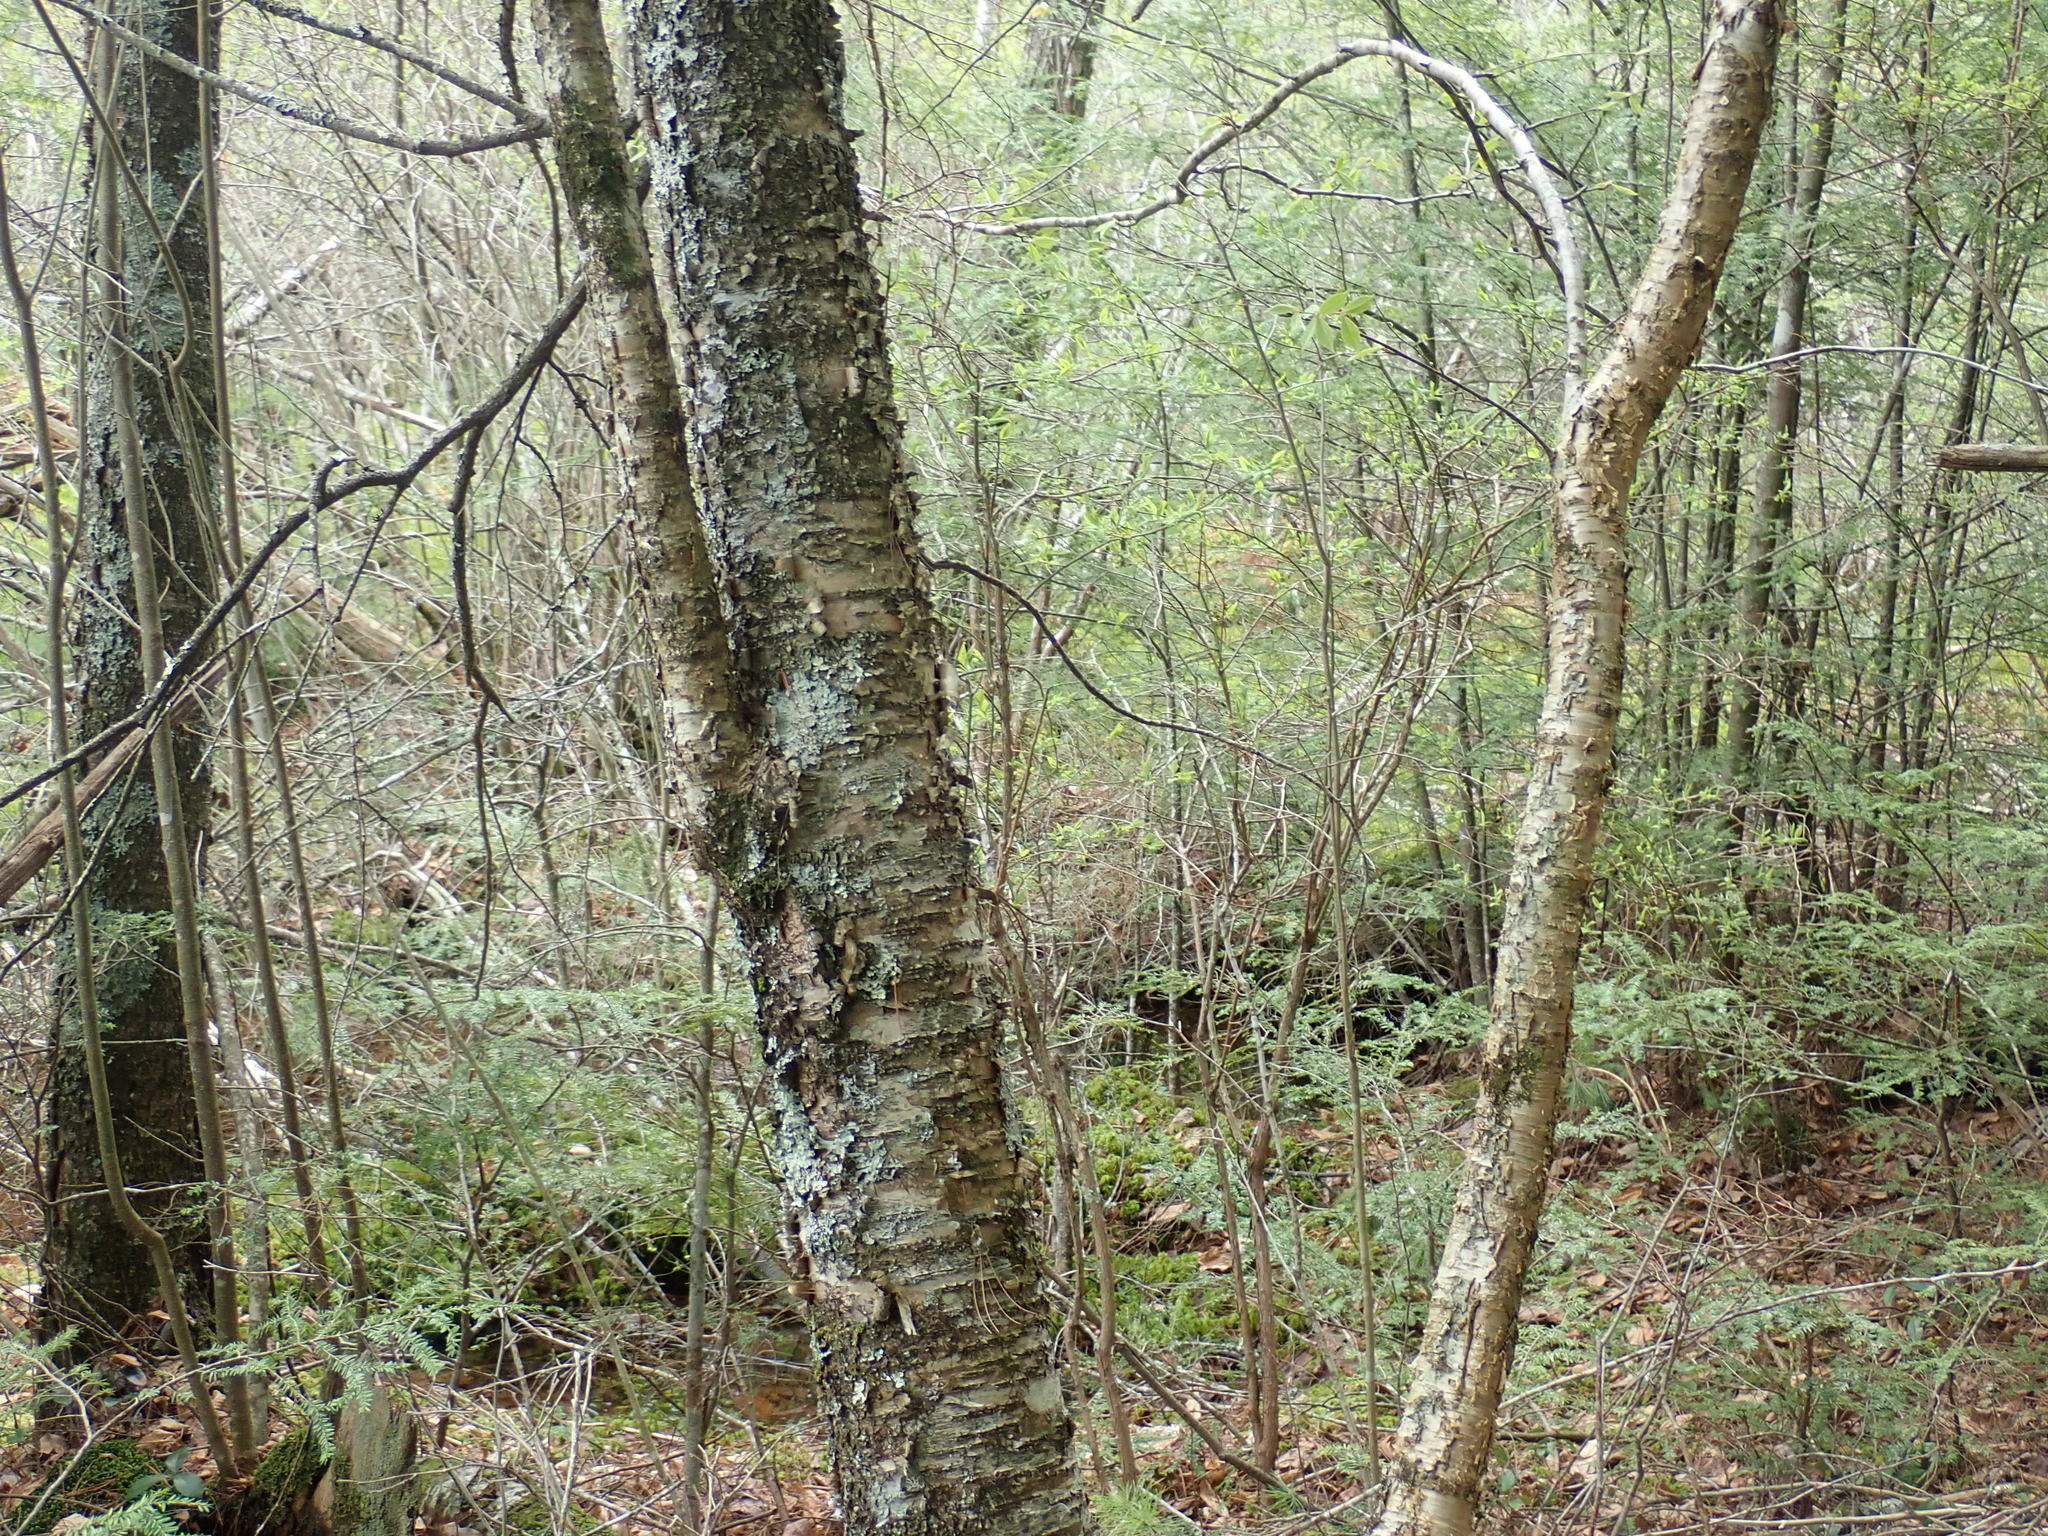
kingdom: Plantae
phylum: Tracheophyta
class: Magnoliopsida
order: Fagales
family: Betulaceae
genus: Betula
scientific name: Betula alleghaniensis
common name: Yellow birch
